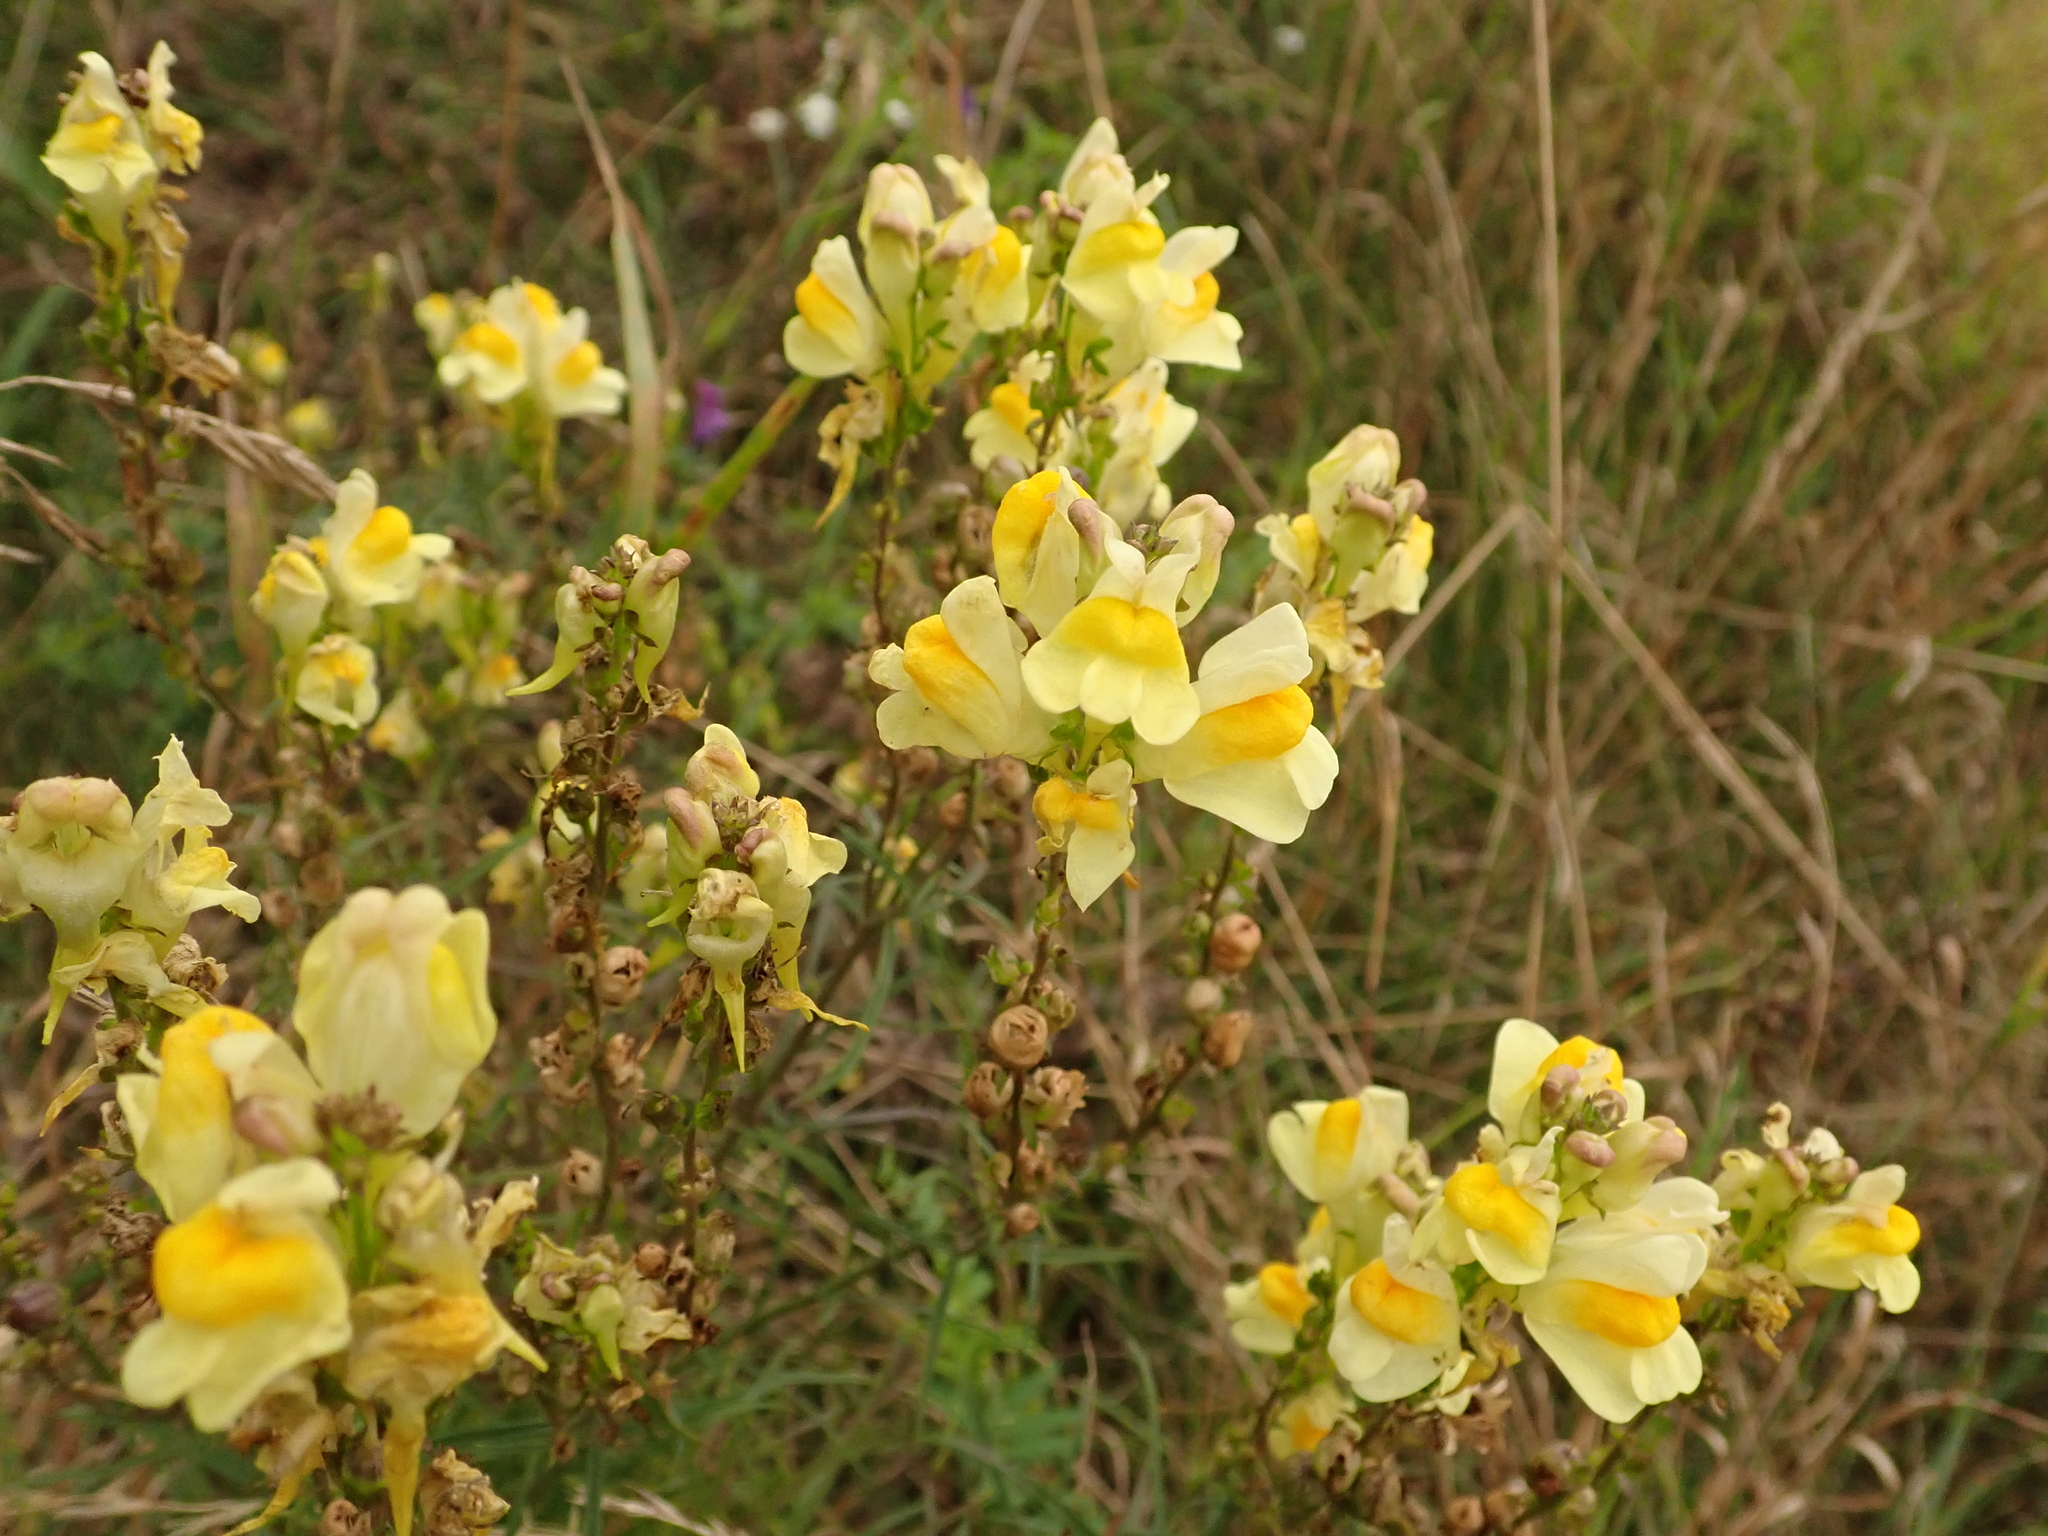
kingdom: Plantae
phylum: Tracheophyta
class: Magnoliopsida
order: Lamiales
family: Plantaginaceae
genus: Linaria
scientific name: Linaria vulgaris
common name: Butter and eggs
